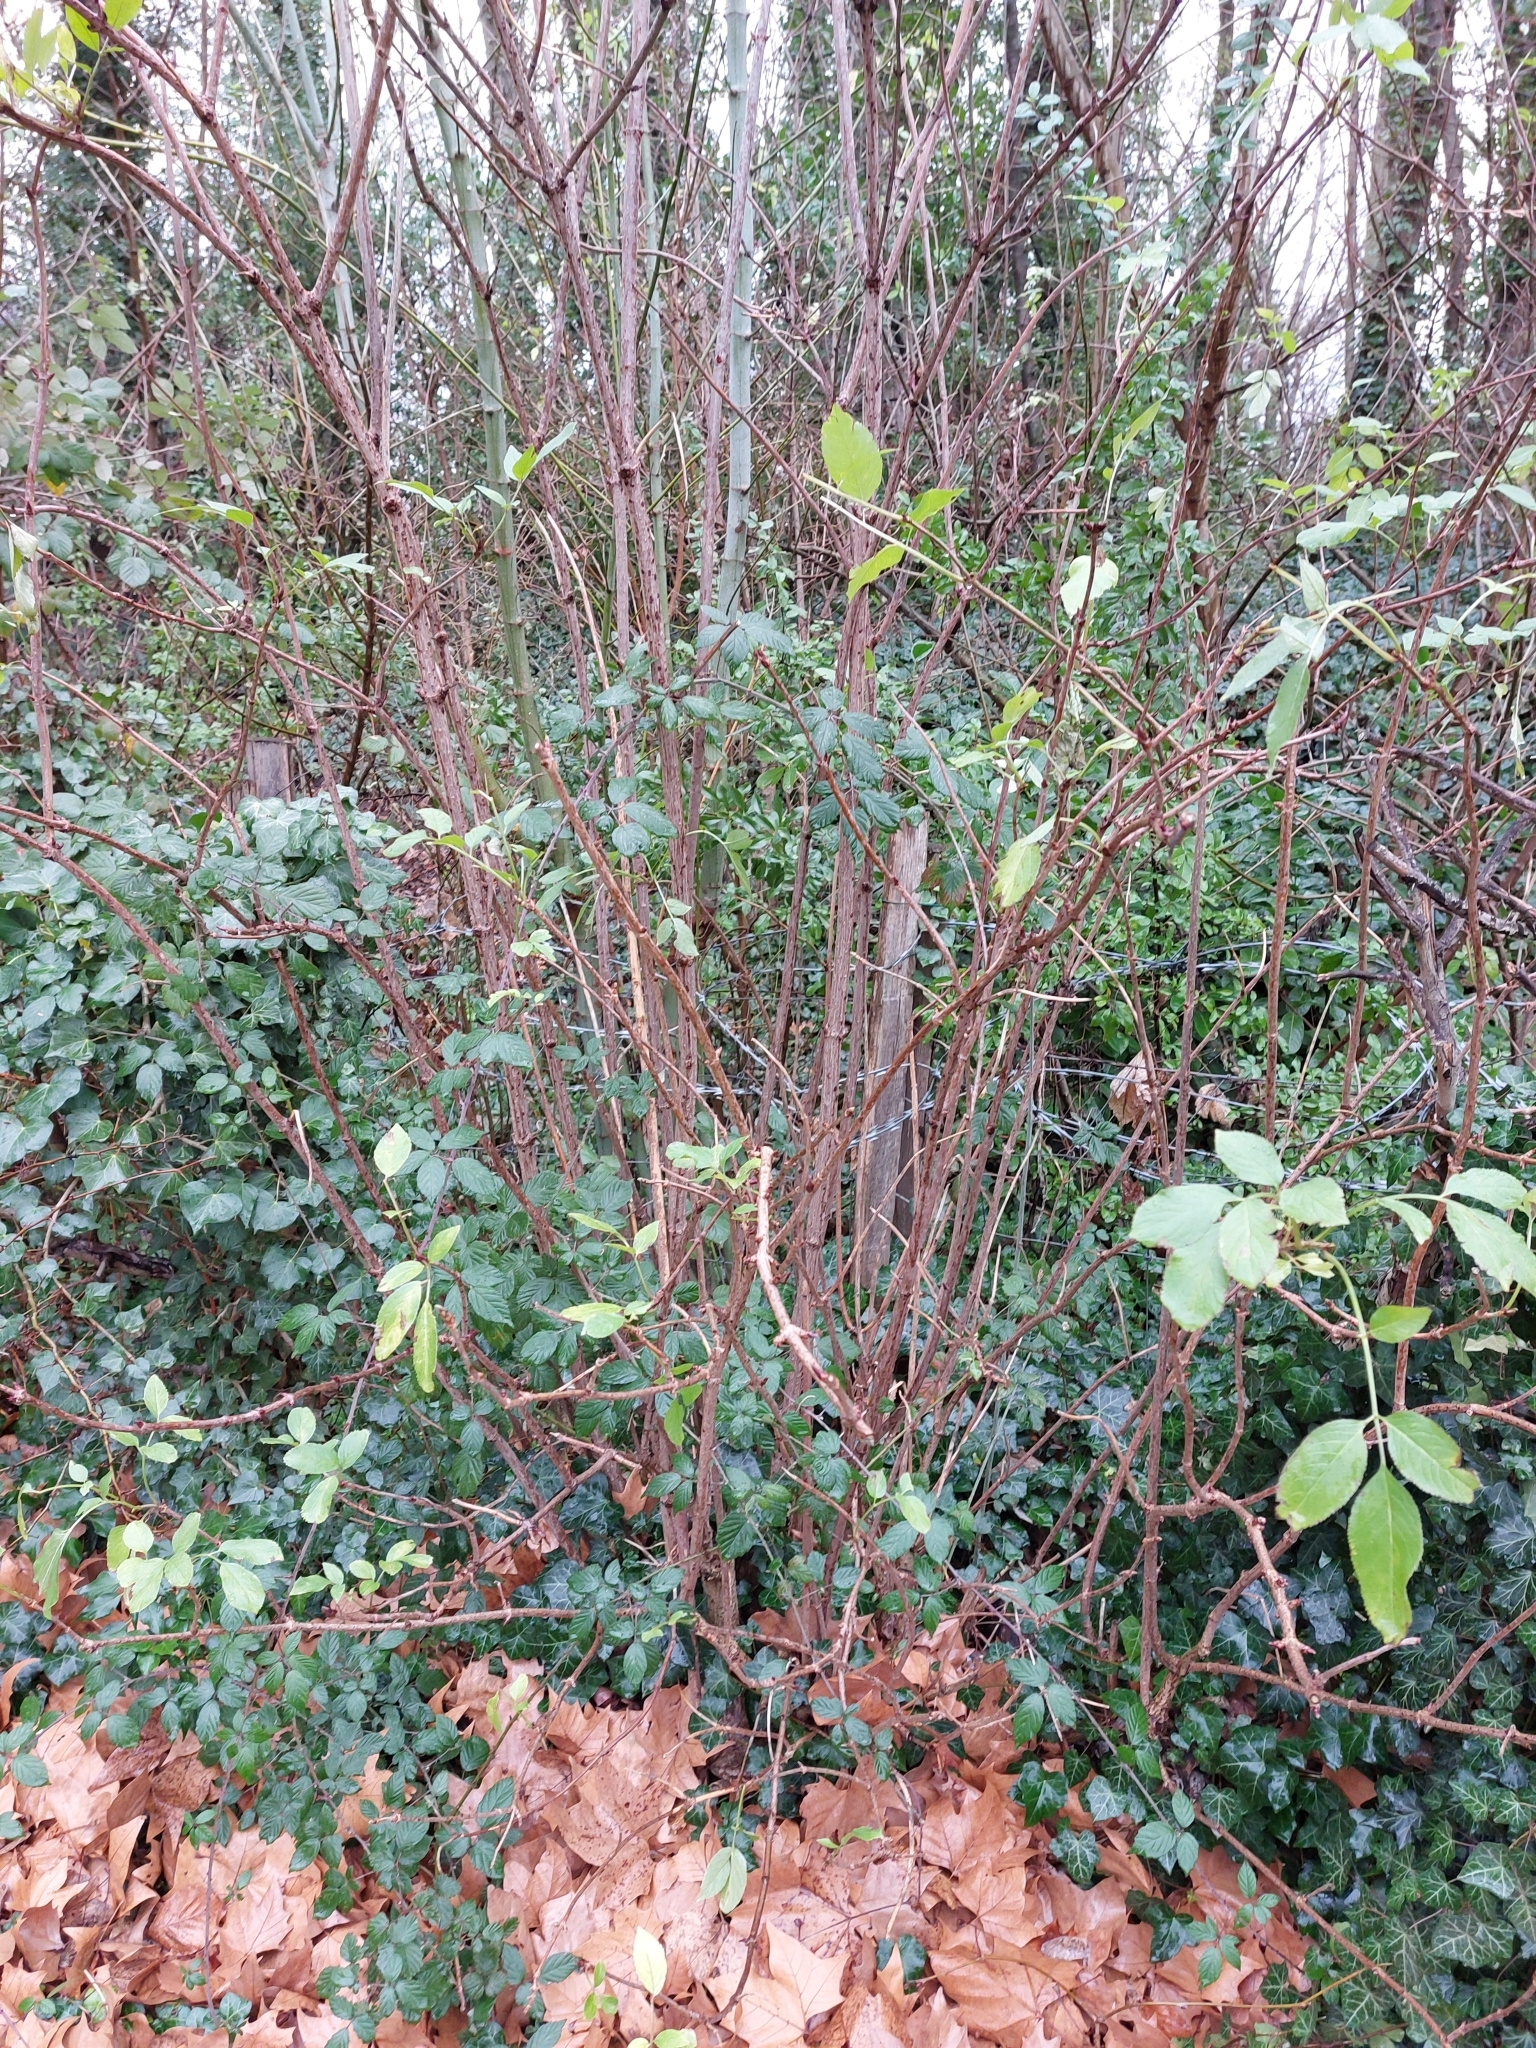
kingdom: Plantae
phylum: Tracheophyta
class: Magnoliopsida
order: Dipsacales
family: Viburnaceae
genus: Sambucus
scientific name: Sambucus nigra
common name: Elder
